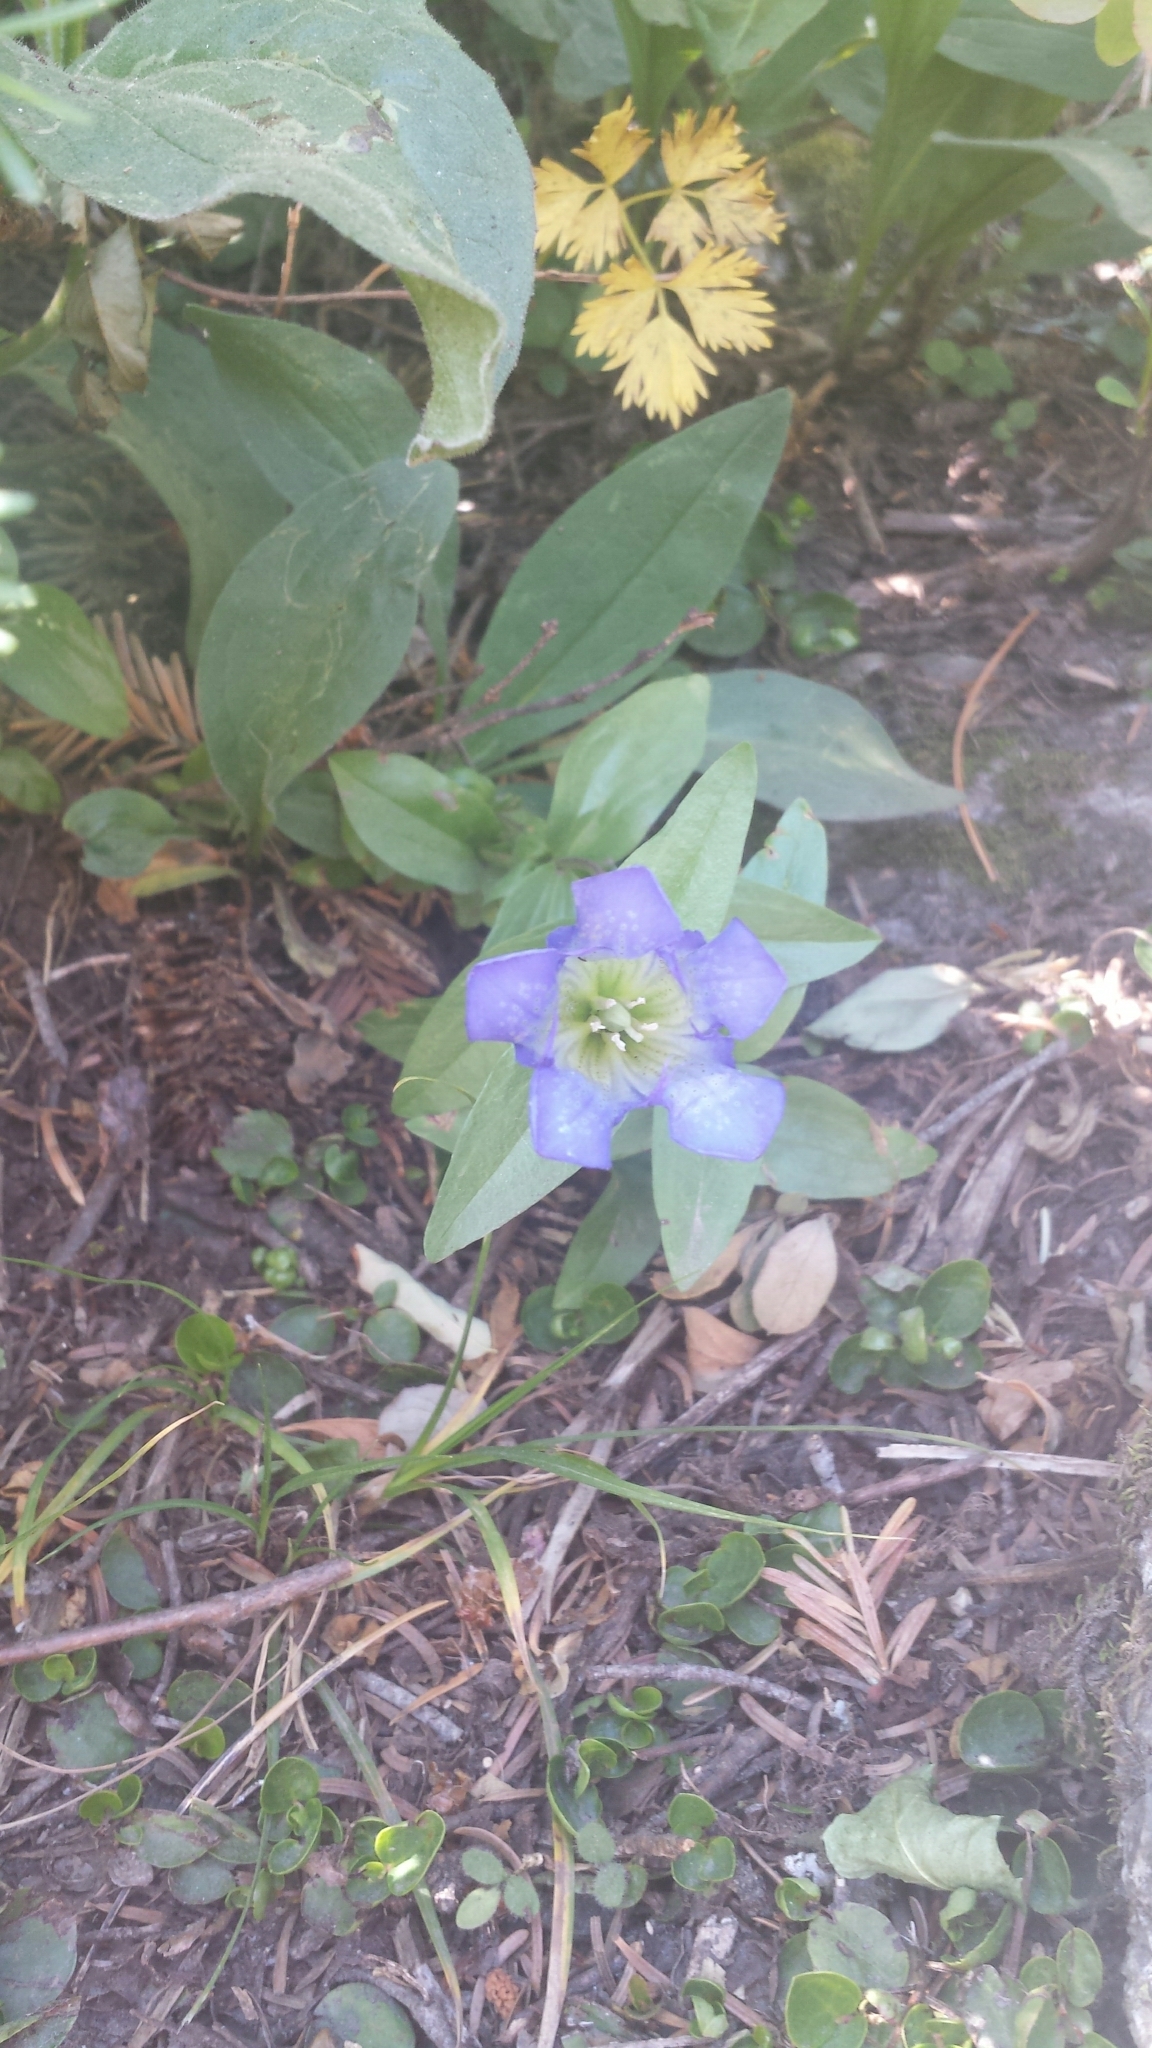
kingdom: Plantae
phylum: Tracheophyta
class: Magnoliopsida
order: Gentianales
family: Gentianaceae
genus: Gentiana
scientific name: Gentiana calycosa
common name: Rainier pleated gentian
